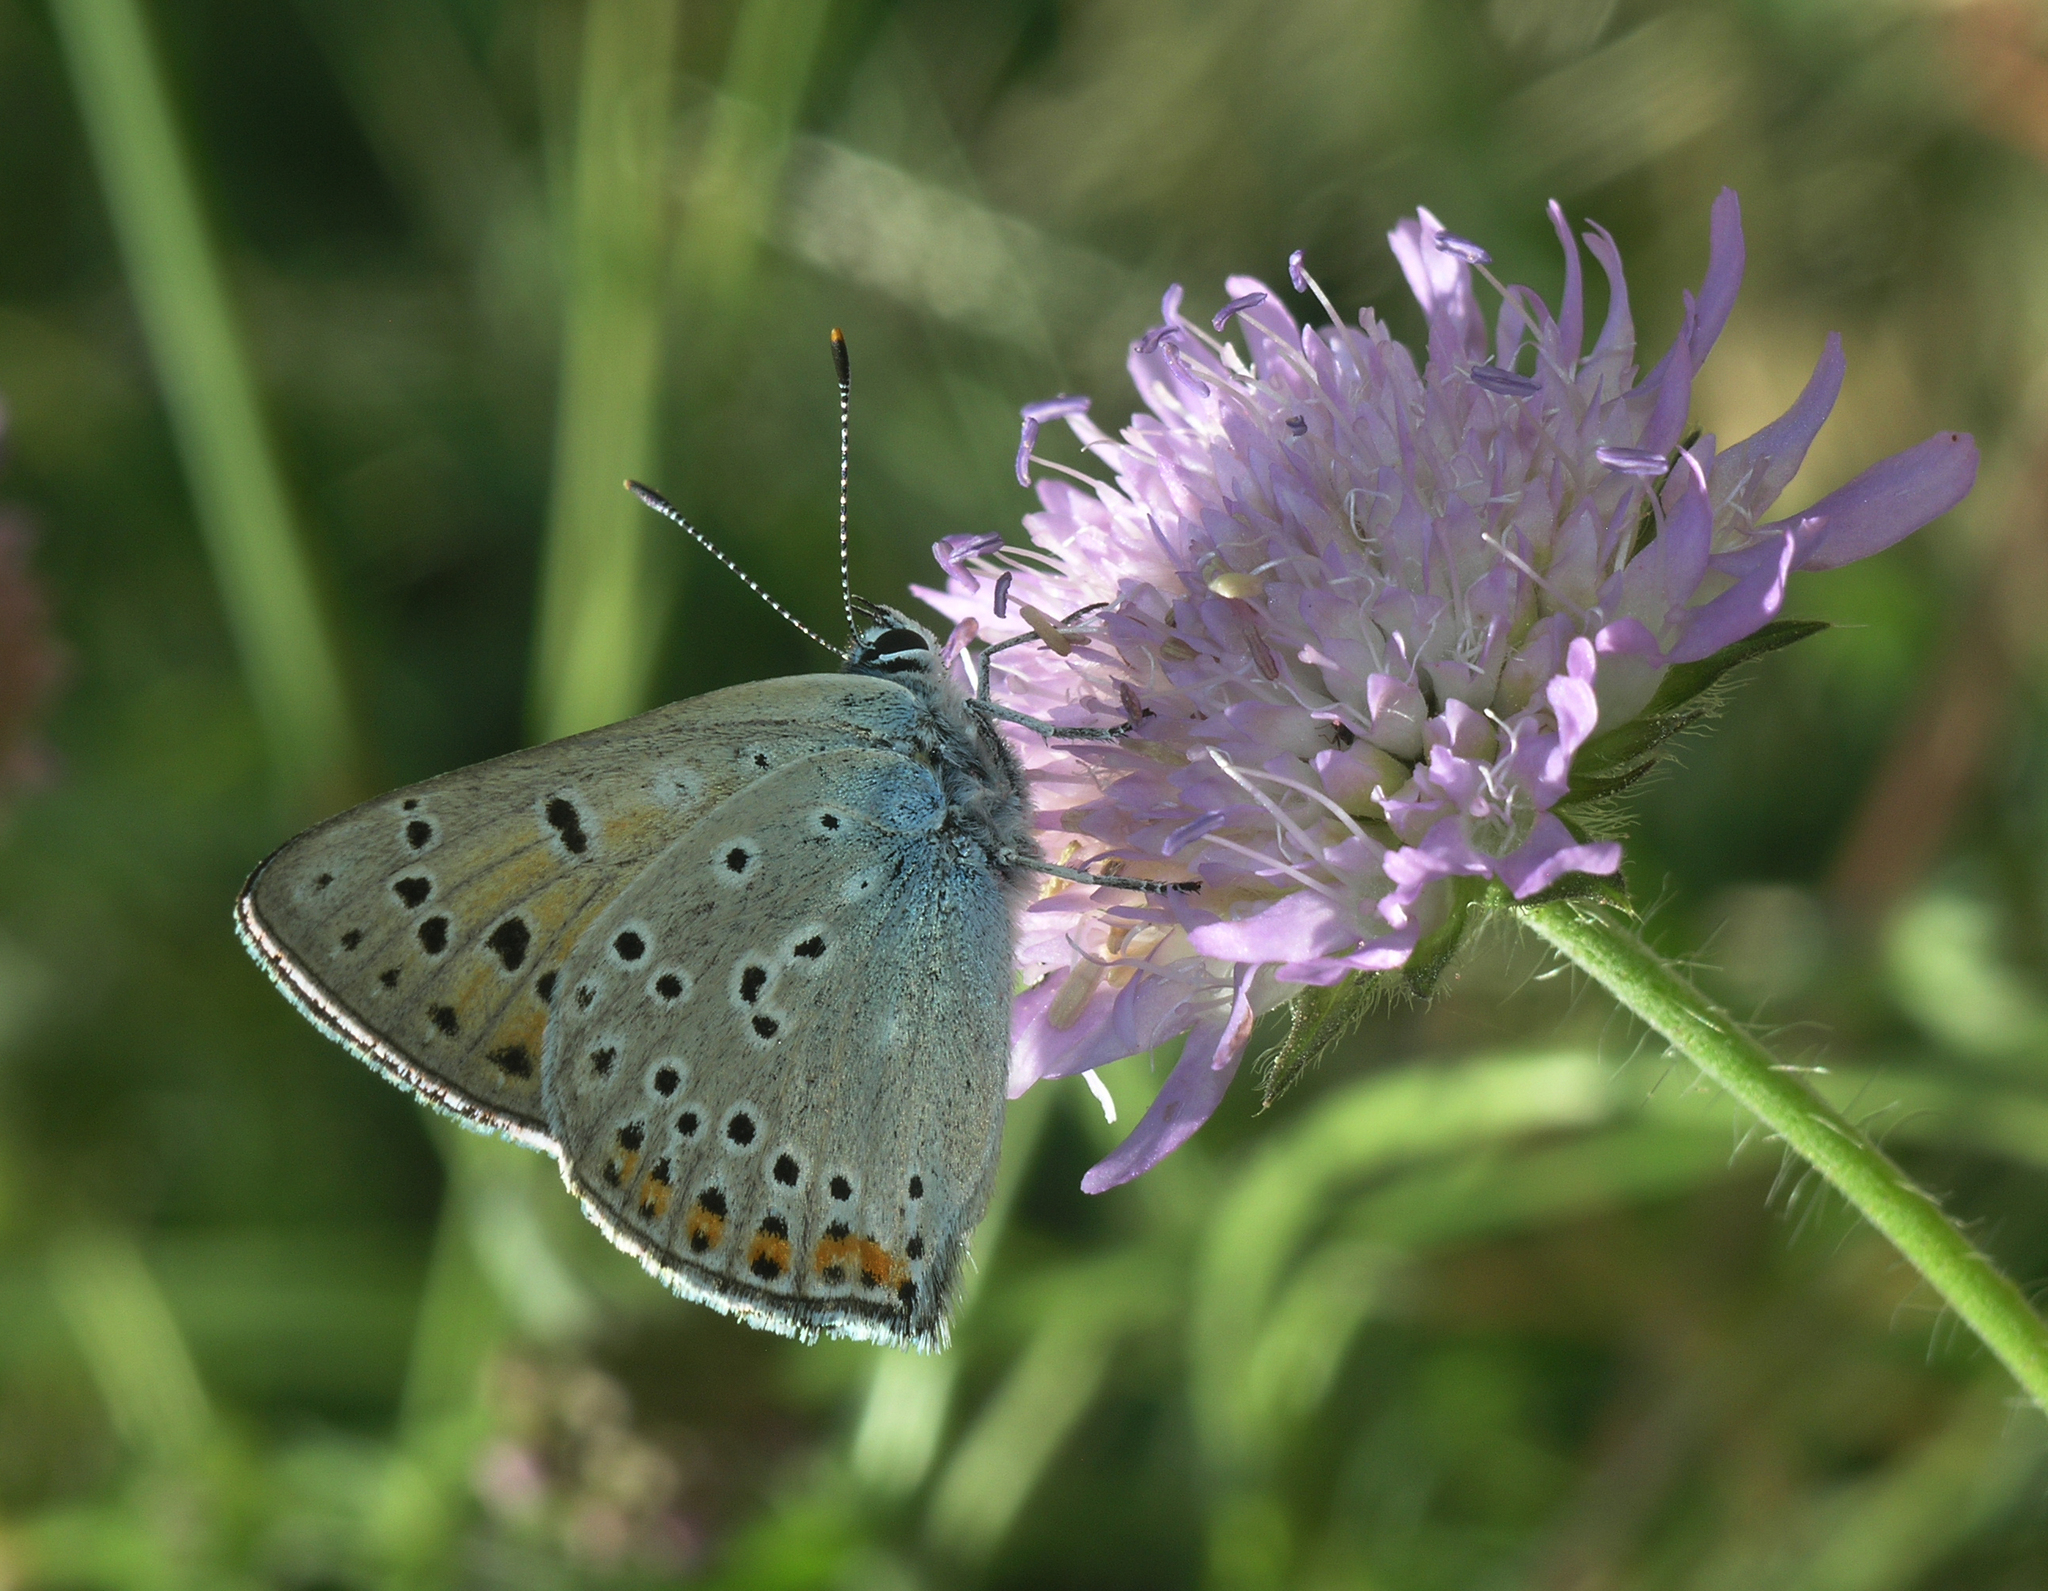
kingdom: Plantae
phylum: Tracheophyta
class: Magnoliopsida
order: Dipsacales
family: Caprifoliaceae
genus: Lomelosia
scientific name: Lomelosia songarica
